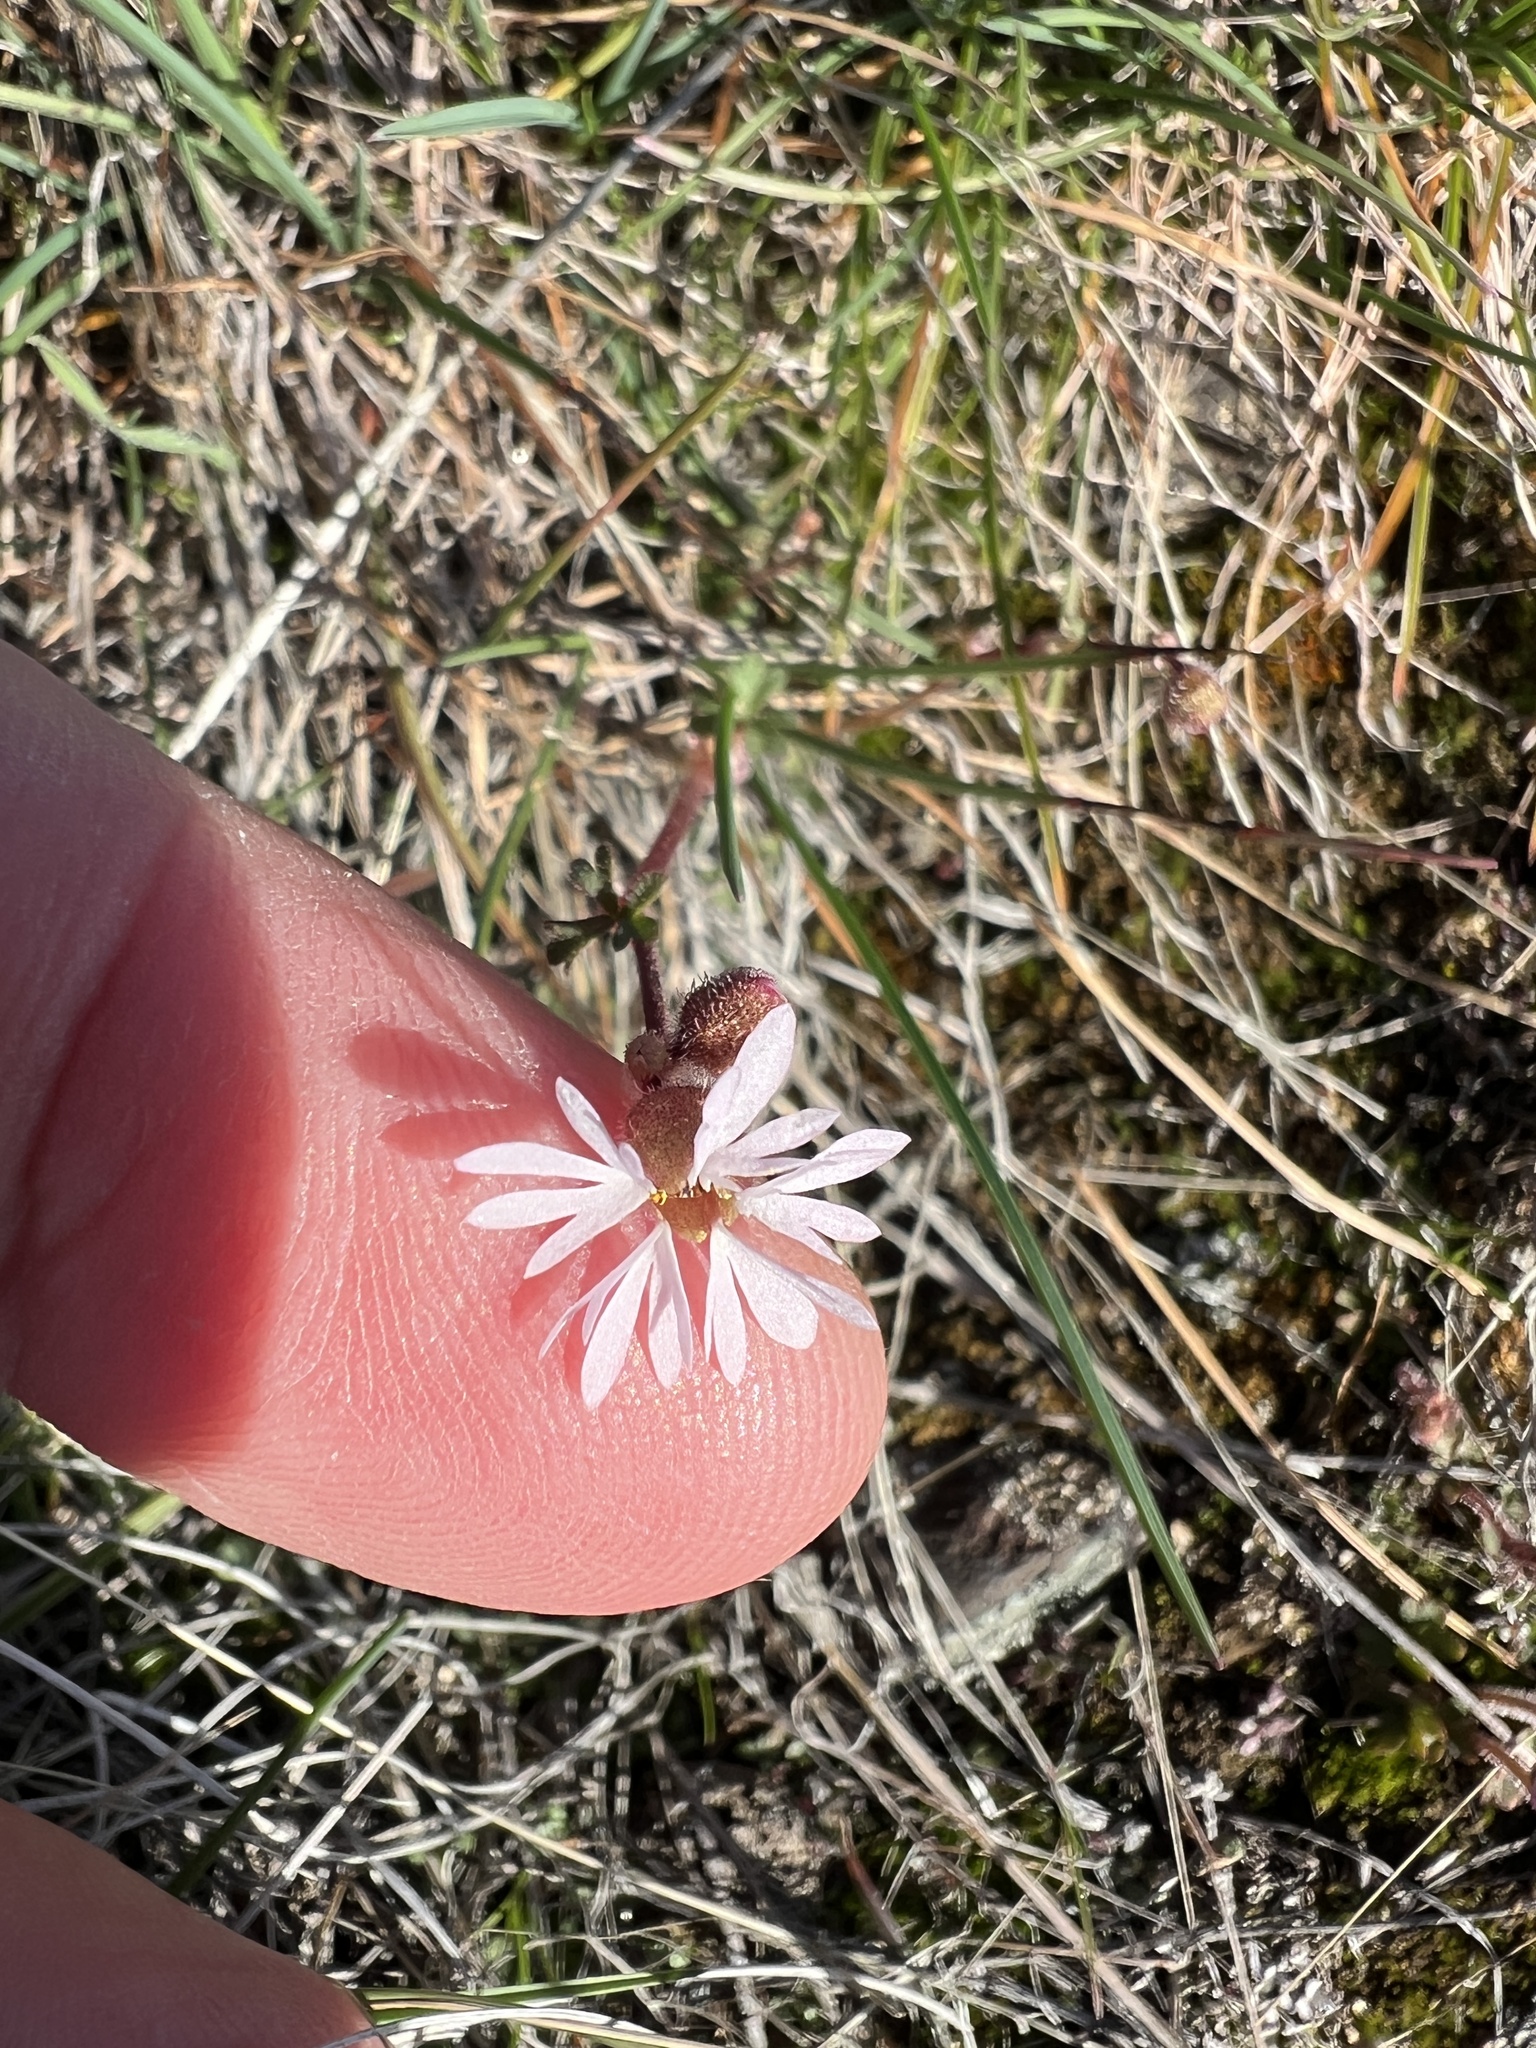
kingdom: Plantae
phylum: Tracheophyta
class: Magnoliopsida
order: Saxifragales
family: Saxifragaceae
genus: Lithophragma
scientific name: Lithophragma glabrum
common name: Bulbous prairie-star
